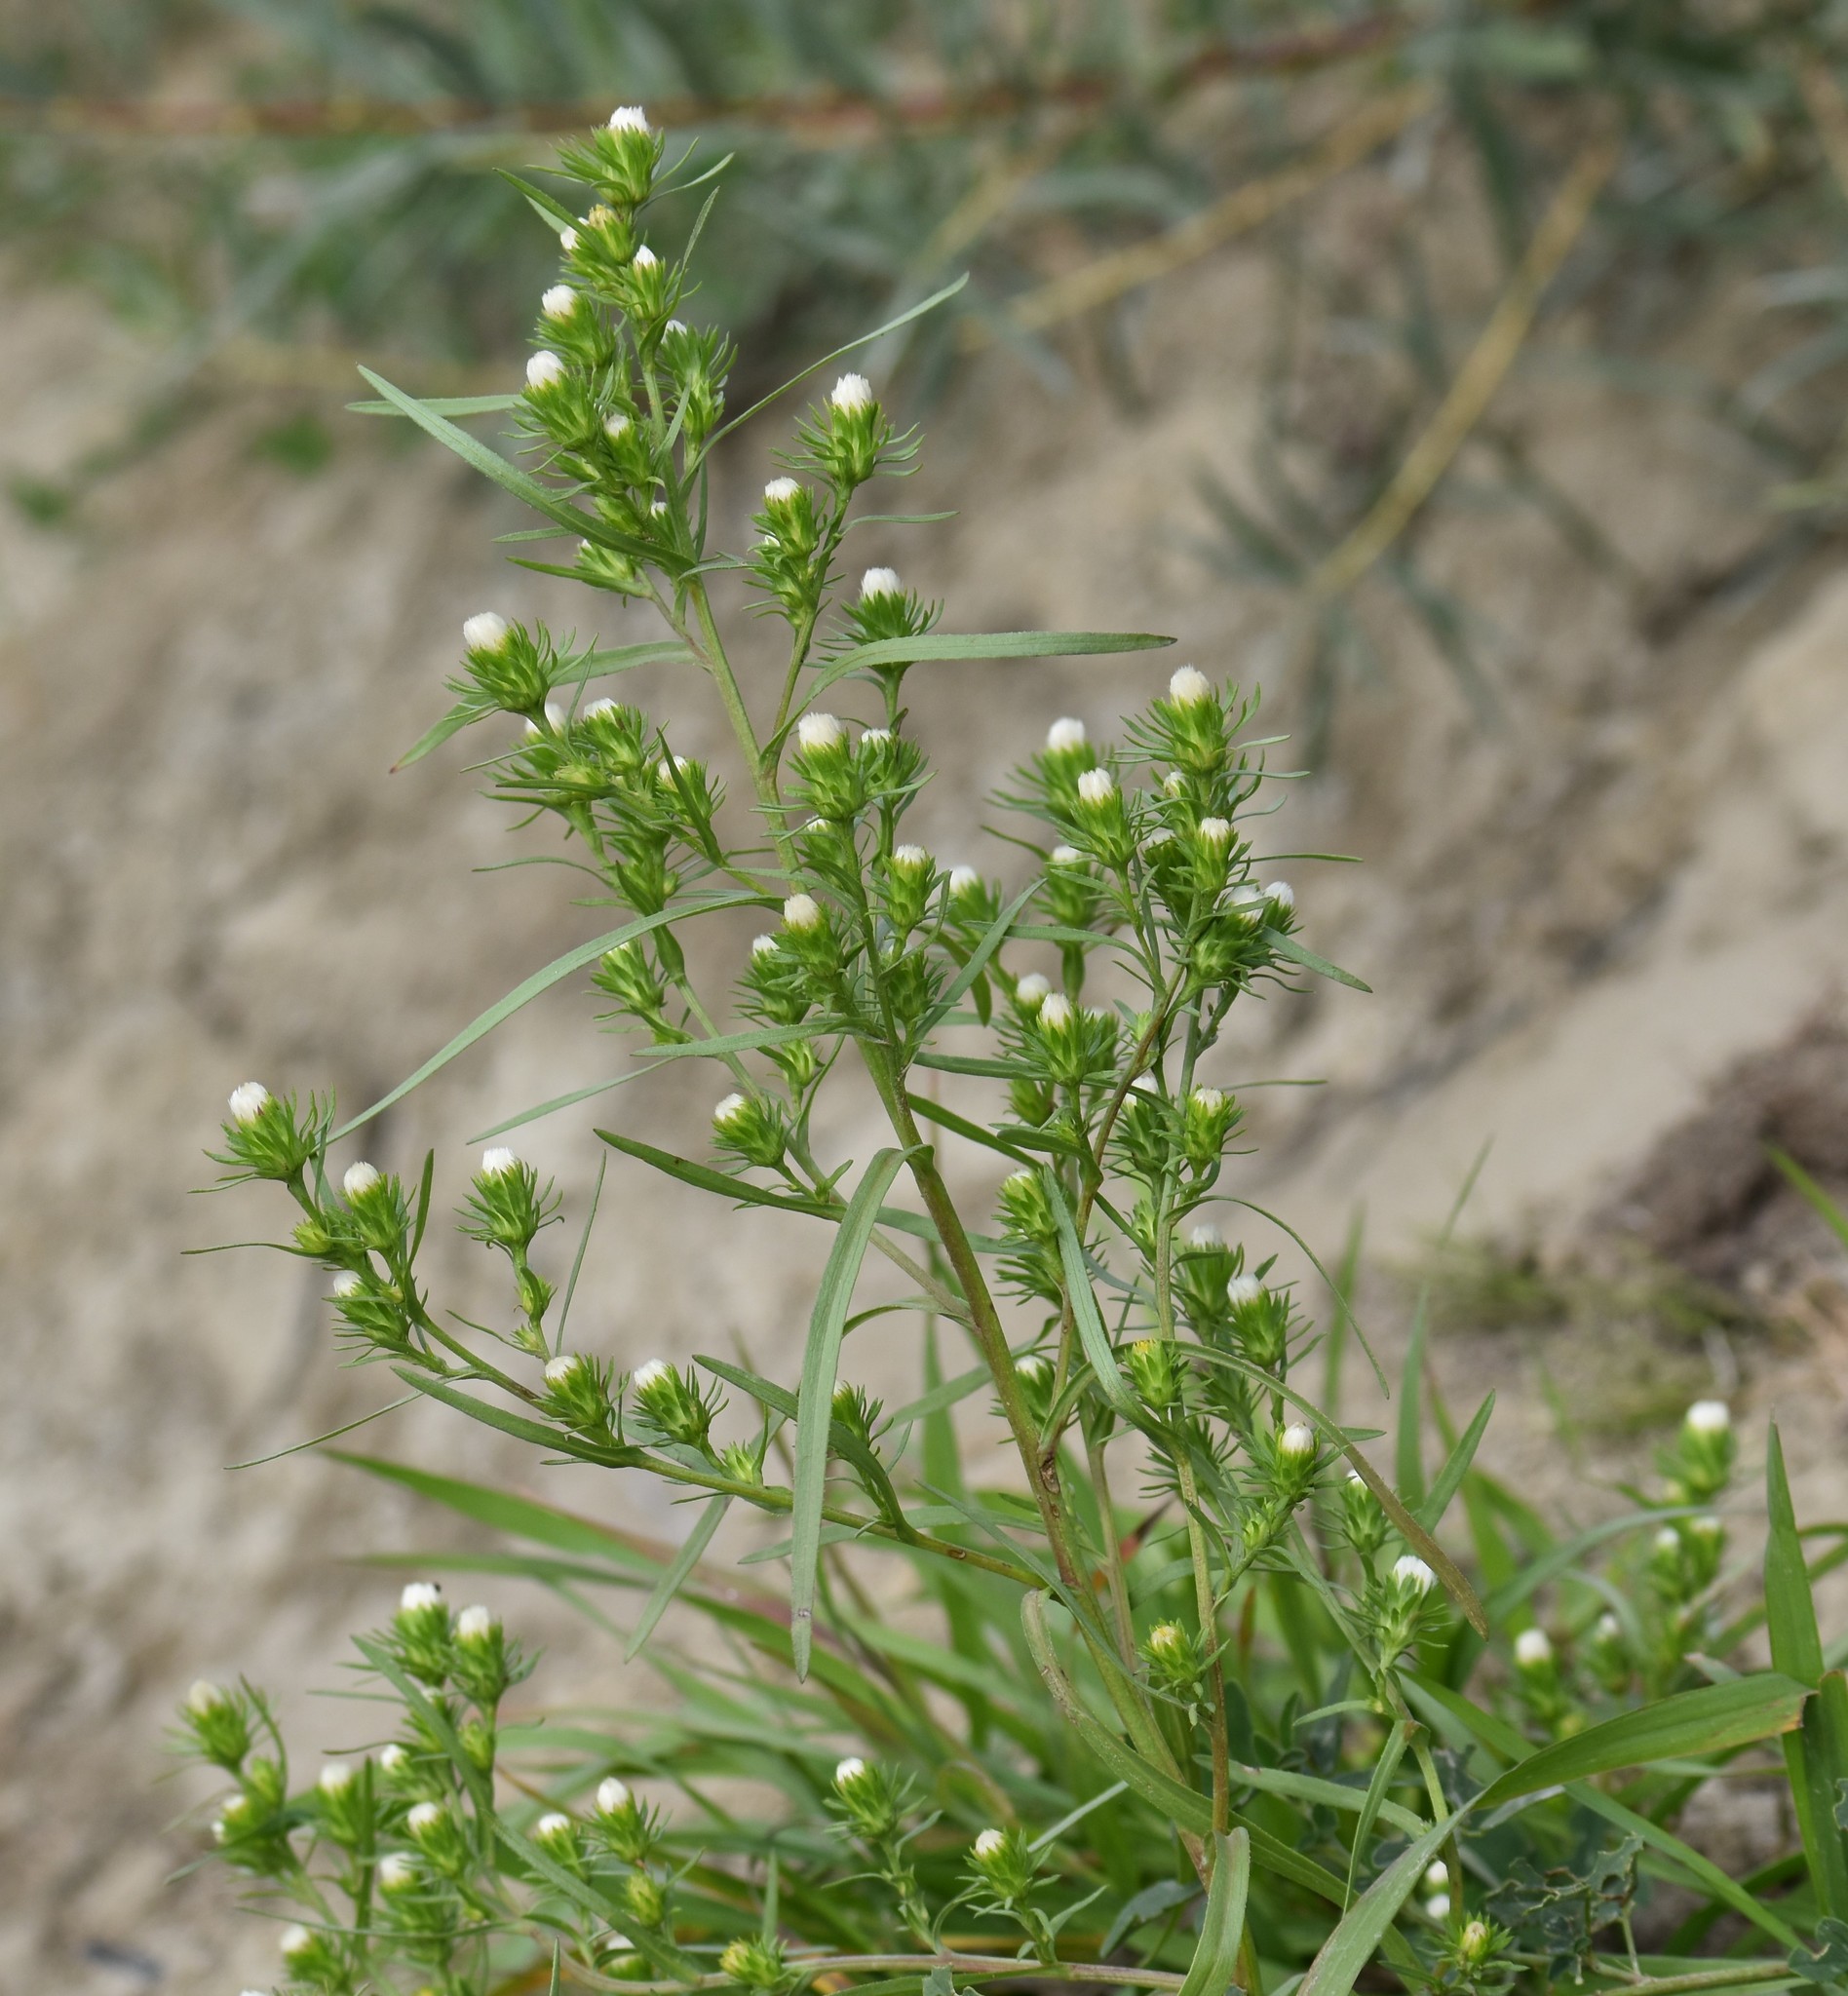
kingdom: Plantae
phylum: Tracheophyta
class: Magnoliopsida
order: Asterales
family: Asteraceae
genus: Symphyotrichum
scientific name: Symphyotrichum ciliatum
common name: Rayless annual aster
